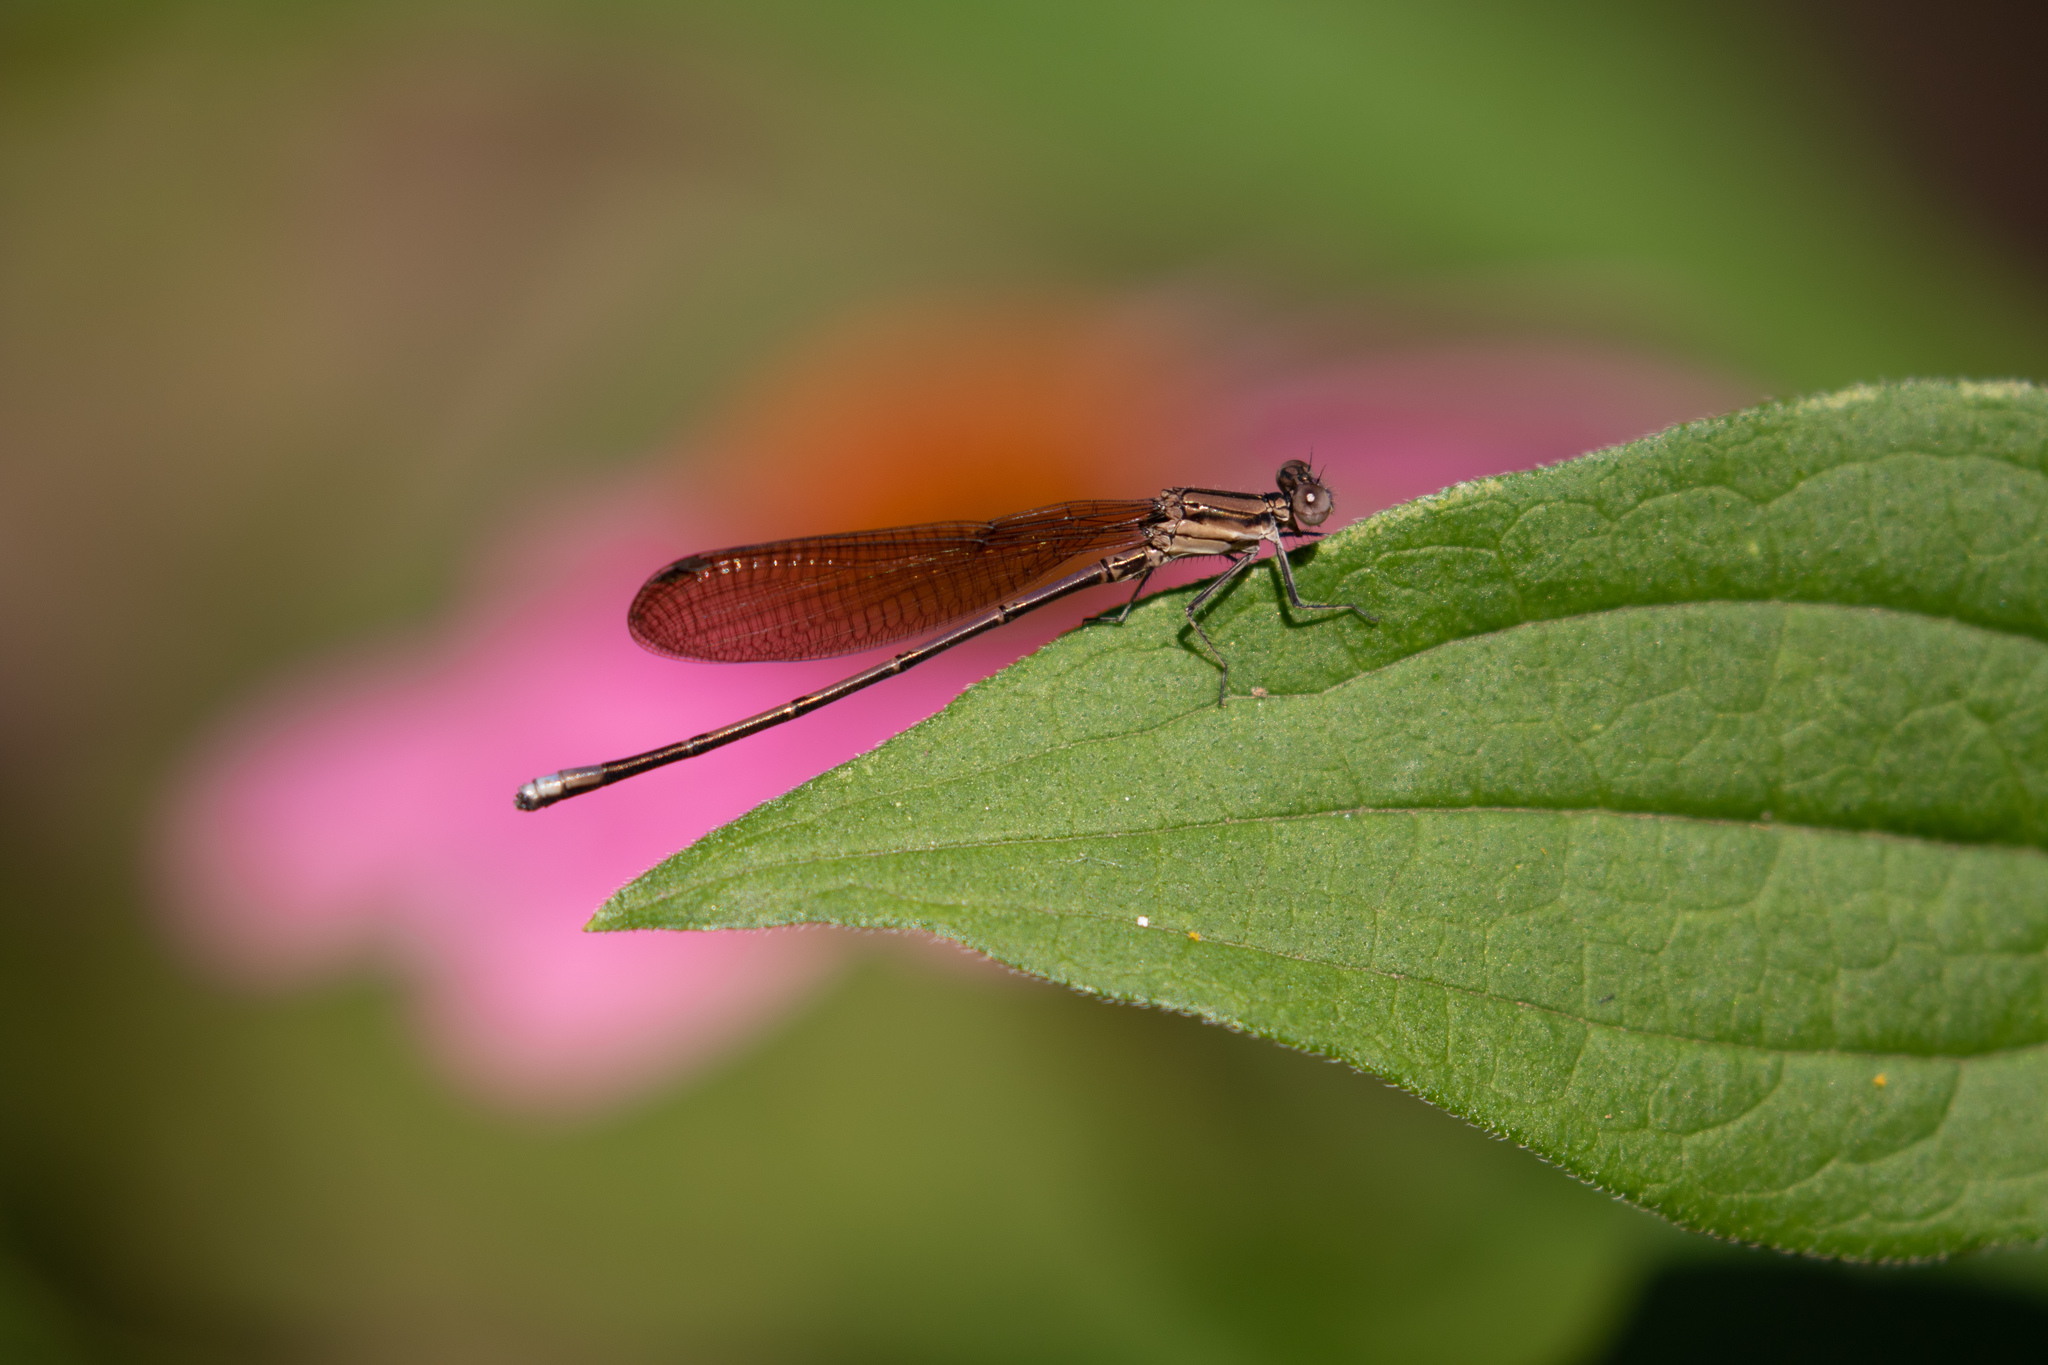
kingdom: Animalia
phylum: Arthropoda
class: Insecta
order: Odonata
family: Coenagrionidae
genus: Argia
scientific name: Argia fumipennis
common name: Variable dancer
